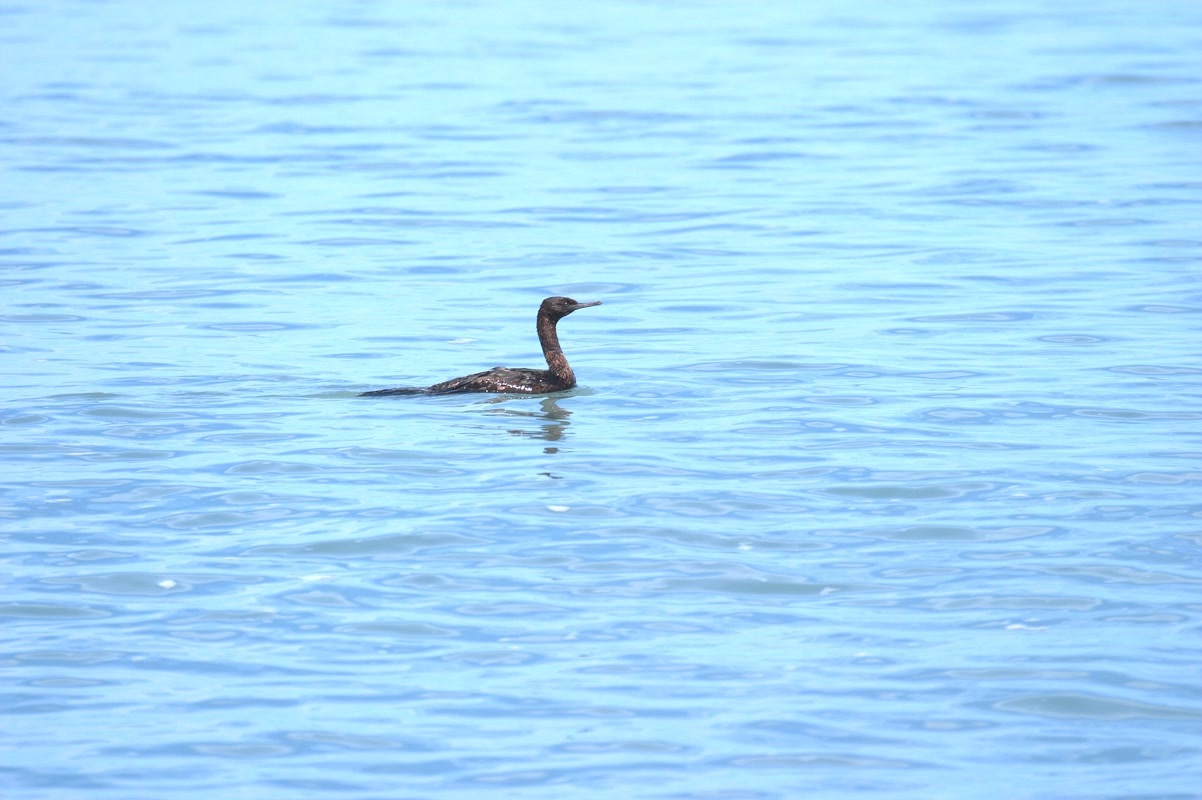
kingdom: Animalia
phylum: Chordata
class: Aves
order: Suliformes
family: Phalacrocoracidae
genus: Phalacrocorax
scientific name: Phalacrocorax pelagicus
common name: Pelagic cormorant
